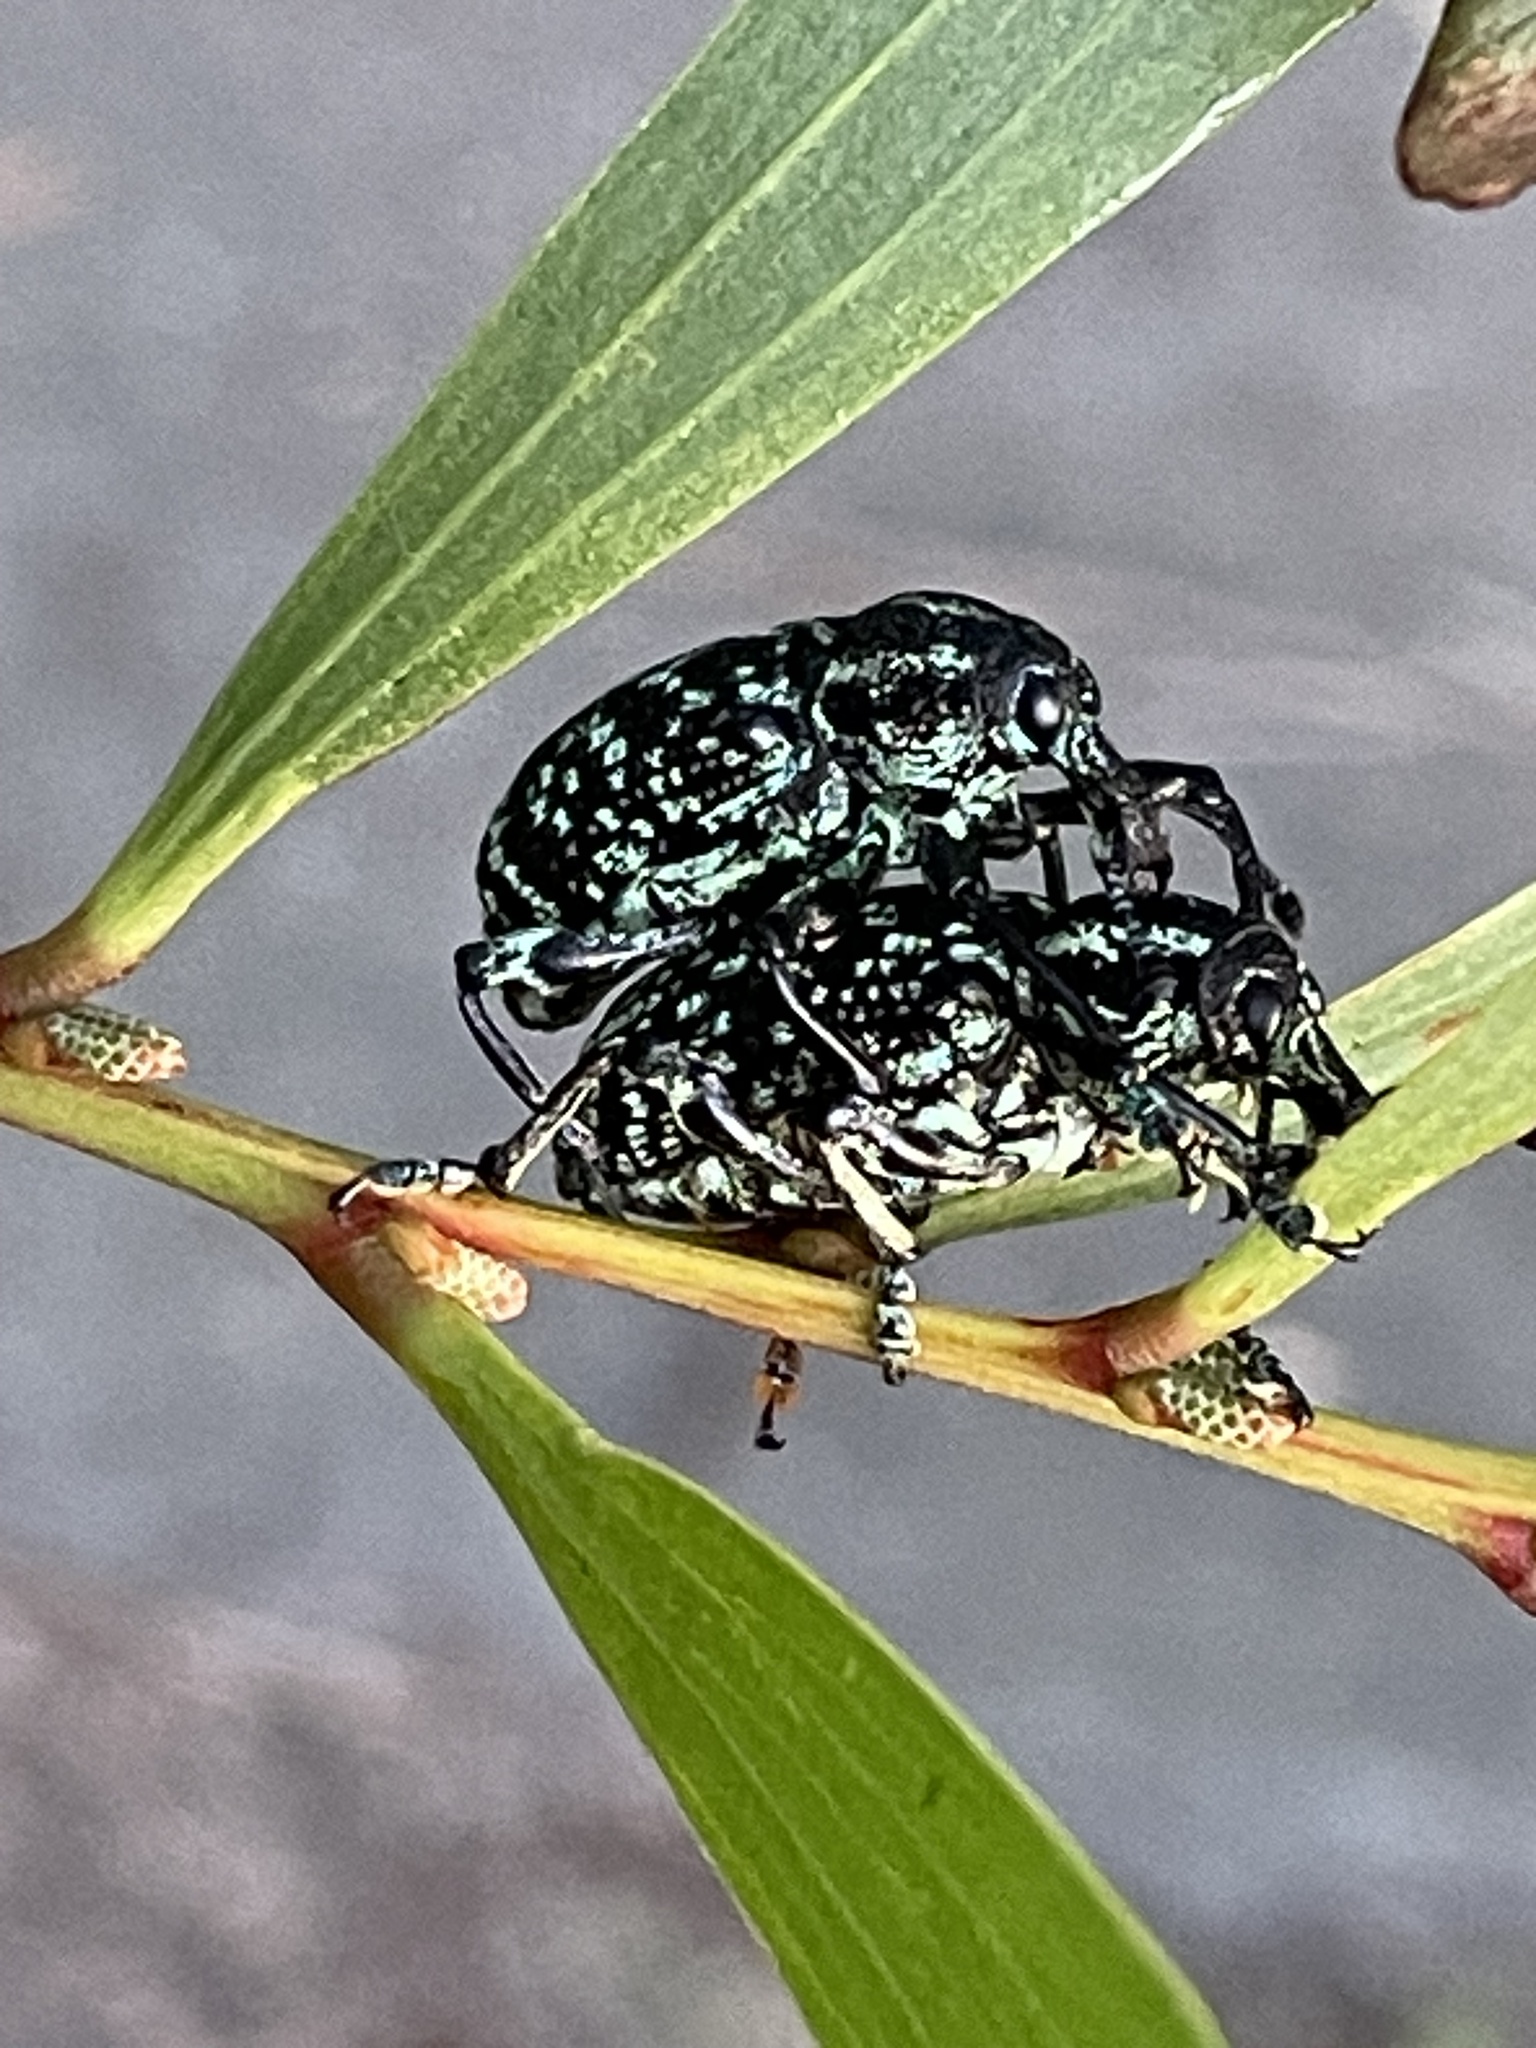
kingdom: Animalia
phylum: Arthropoda
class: Insecta
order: Coleoptera
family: Curculionidae
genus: Chrysolopus
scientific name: Chrysolopus spectabilis
